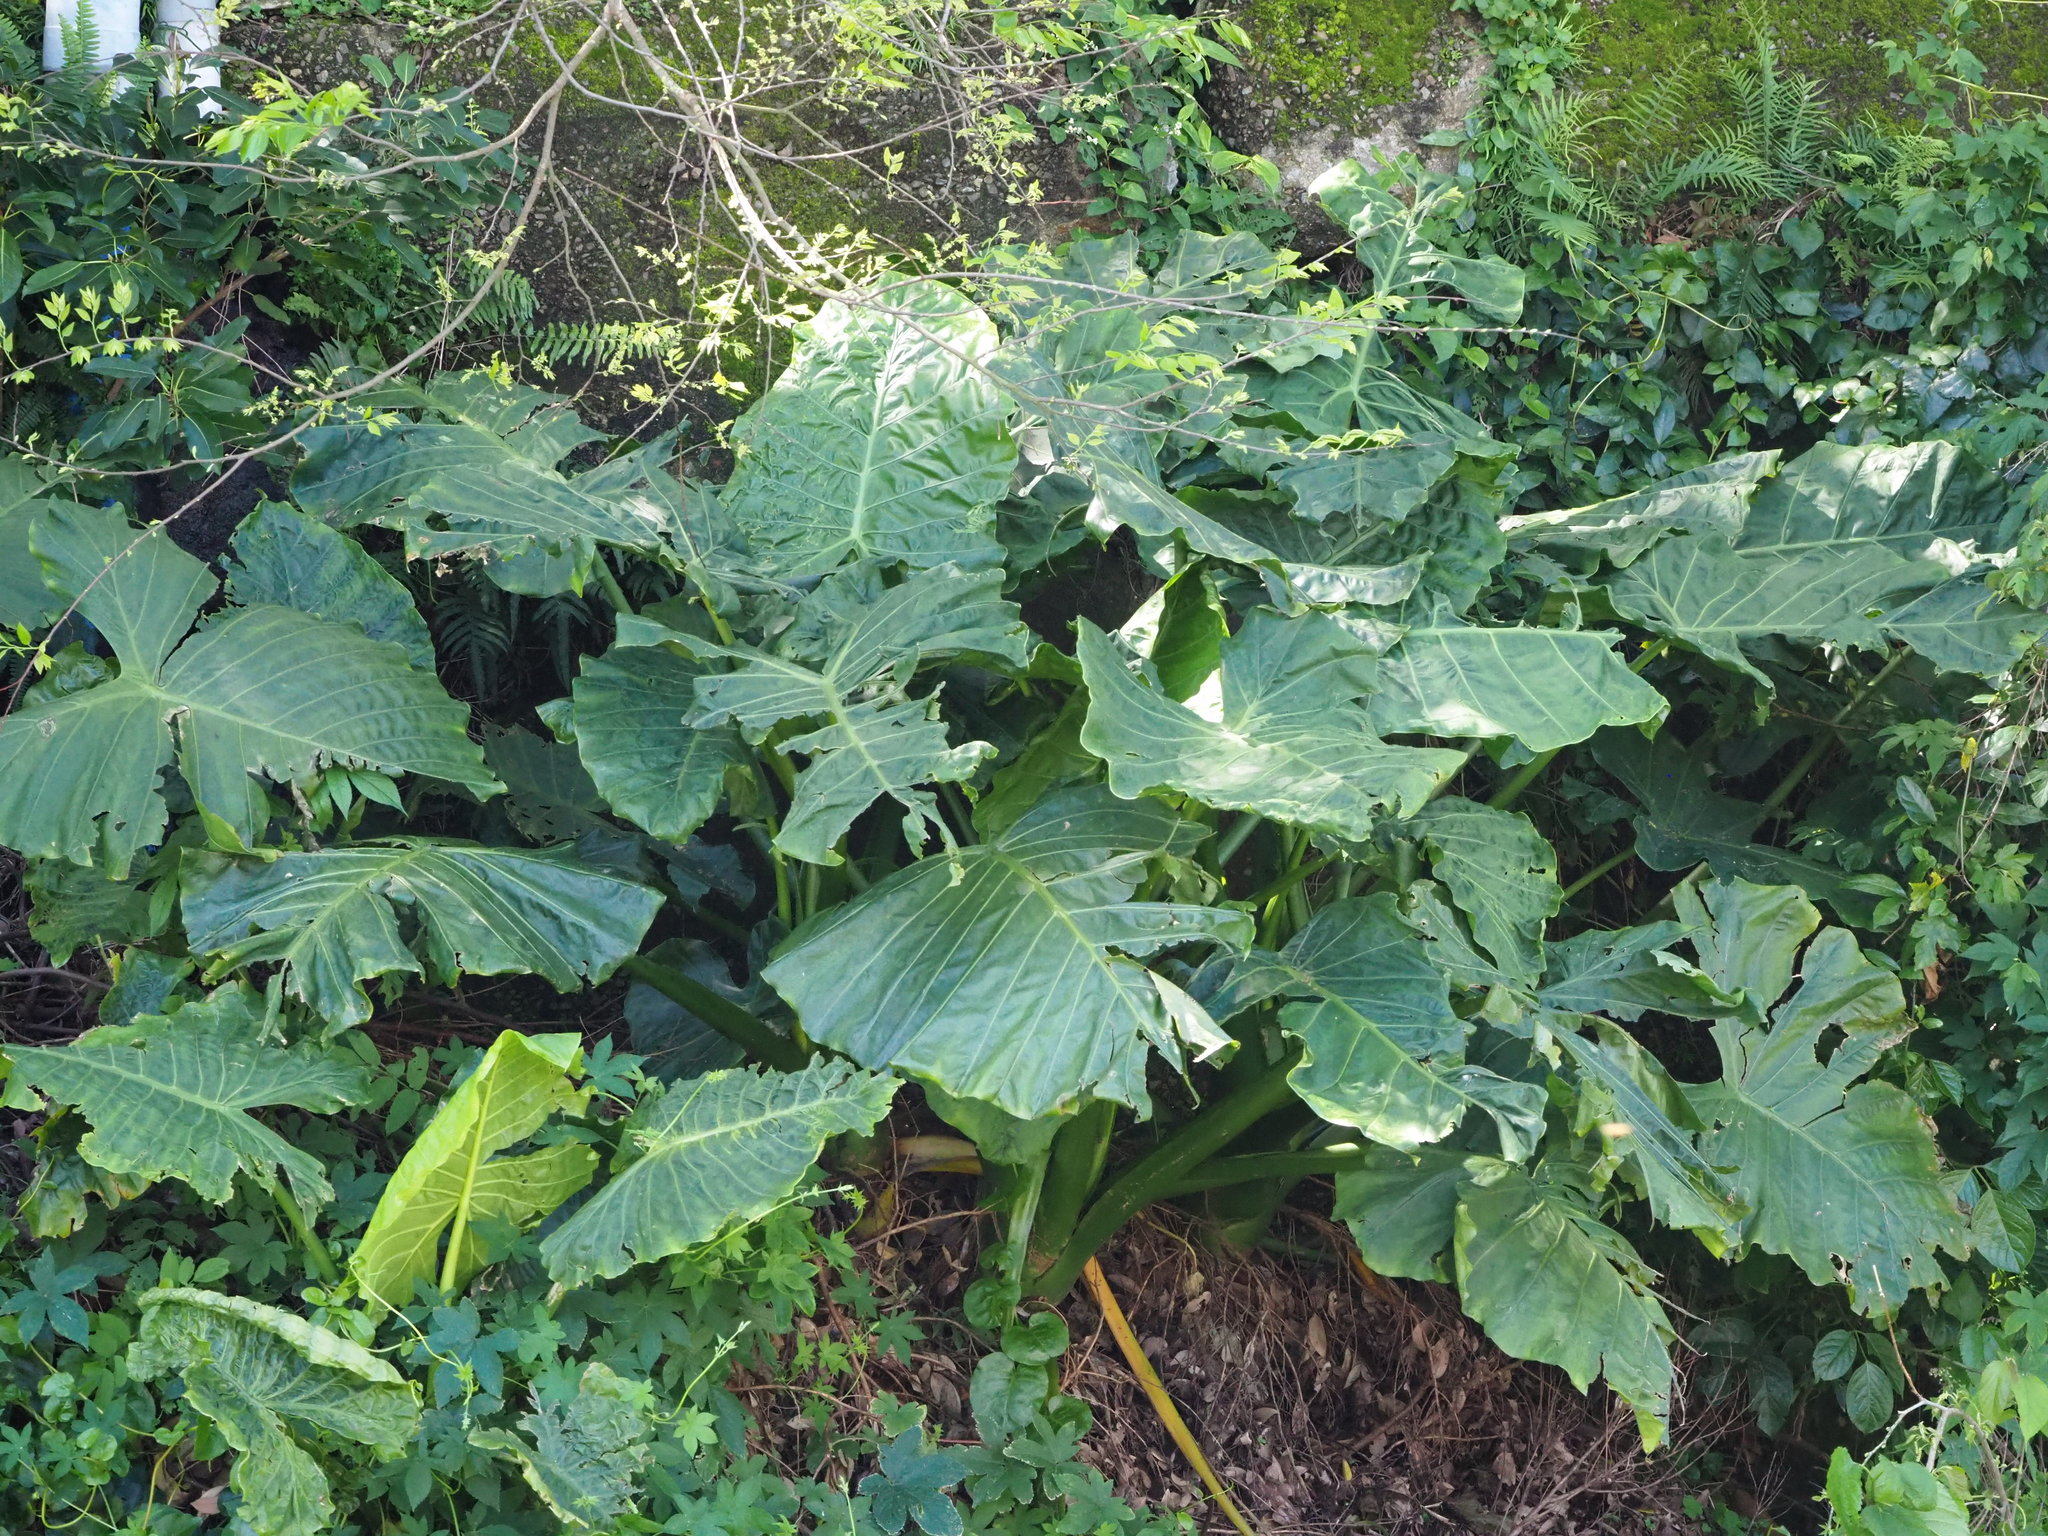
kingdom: Plantae
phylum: Tracheophyta
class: Liliopsida
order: Alismatales
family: Araceae
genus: Alocasia
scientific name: Alocasia odora
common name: Asian taro
